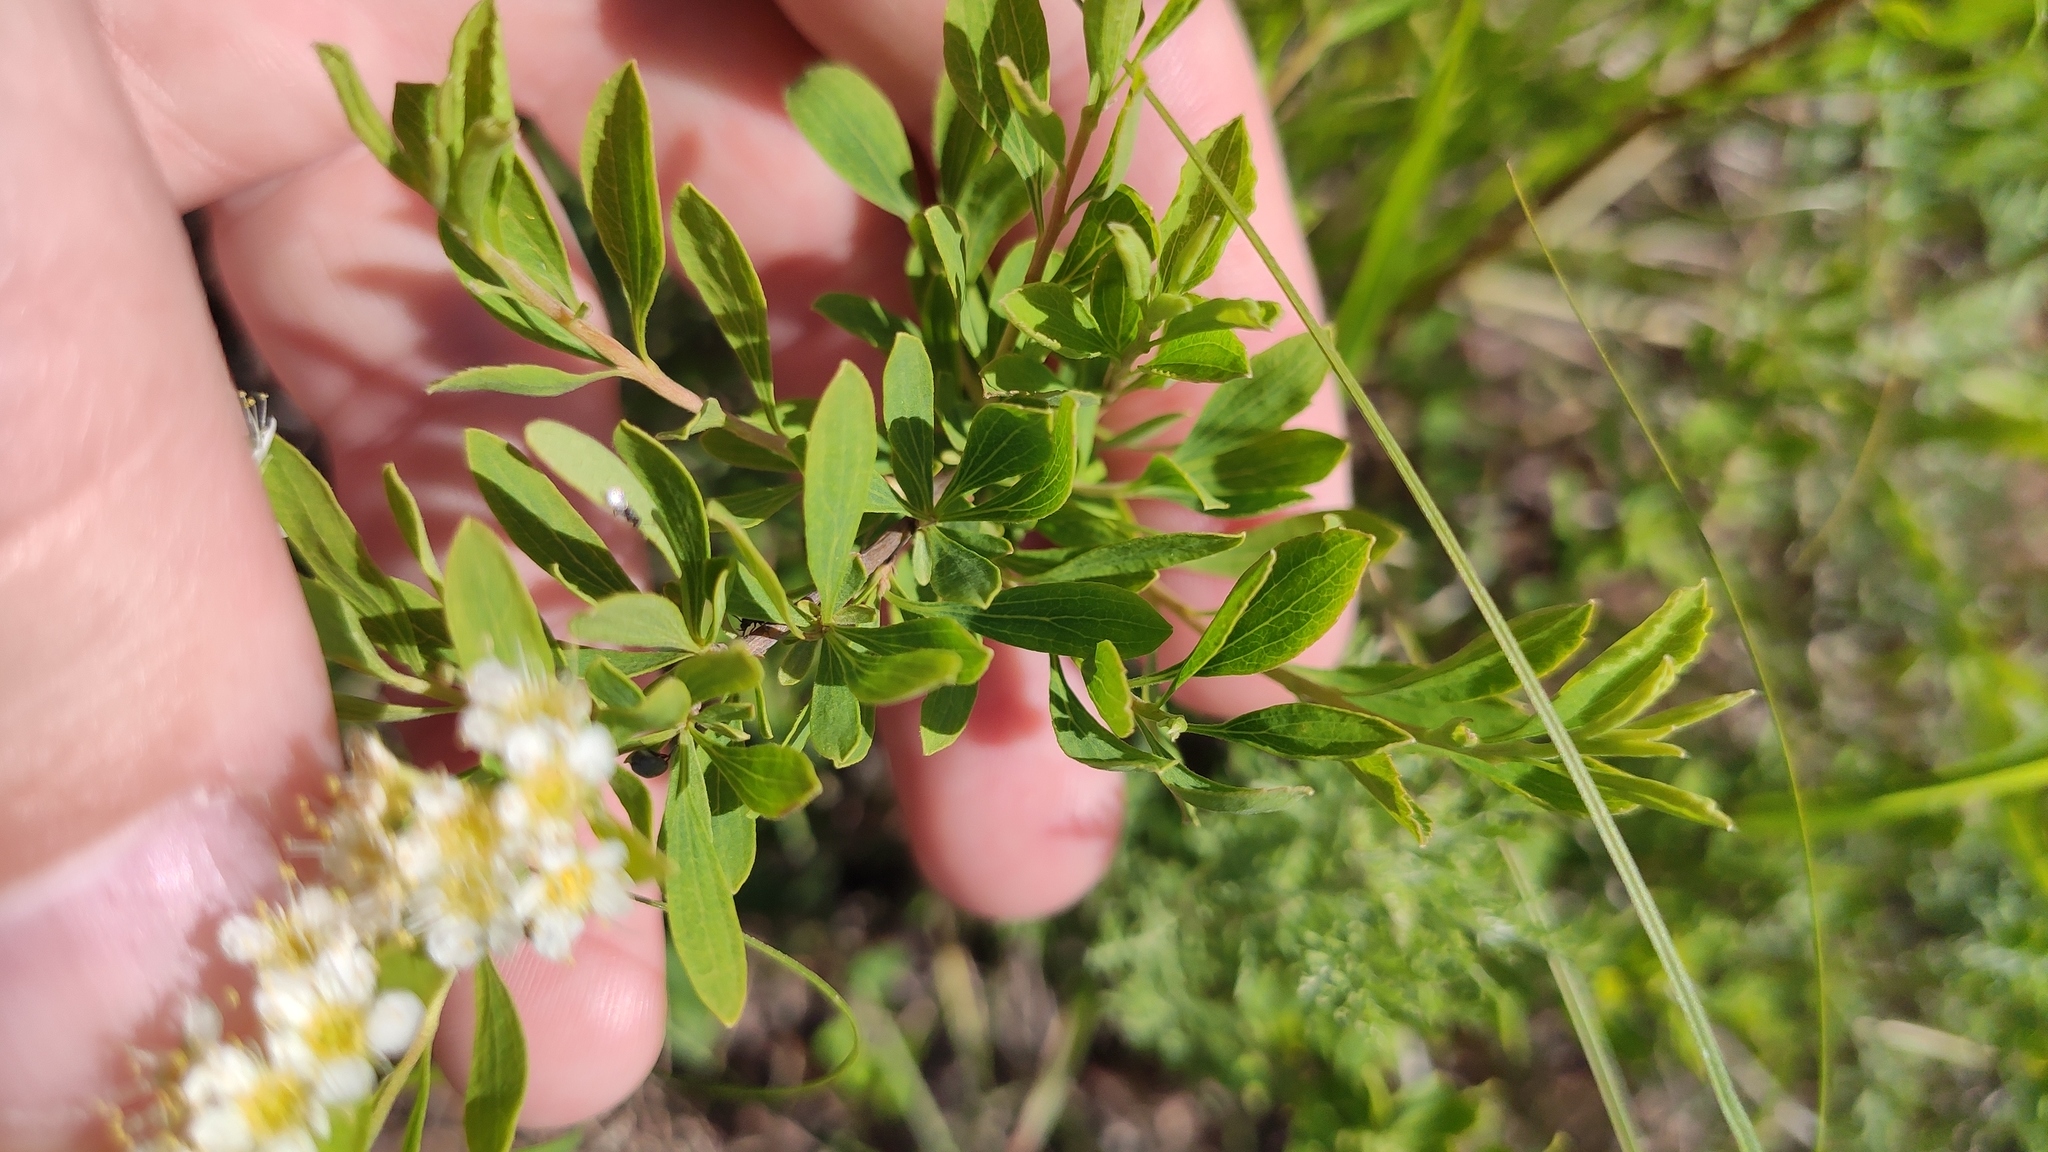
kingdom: Plantae
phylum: Tracheophyta
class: Magnoliopsida
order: Rosales
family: Rosaceae
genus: Spiraea
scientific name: Spiraea crenata
